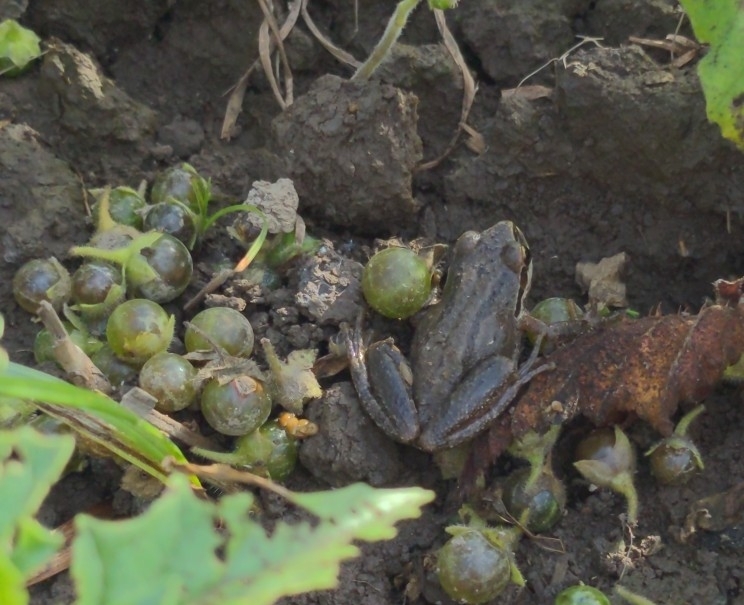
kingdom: Animalia
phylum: Chordata
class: Amphibia
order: Anura
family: Hylidae
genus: Pseudacris
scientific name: Pseudacris regilla
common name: Pacific chorus frog
